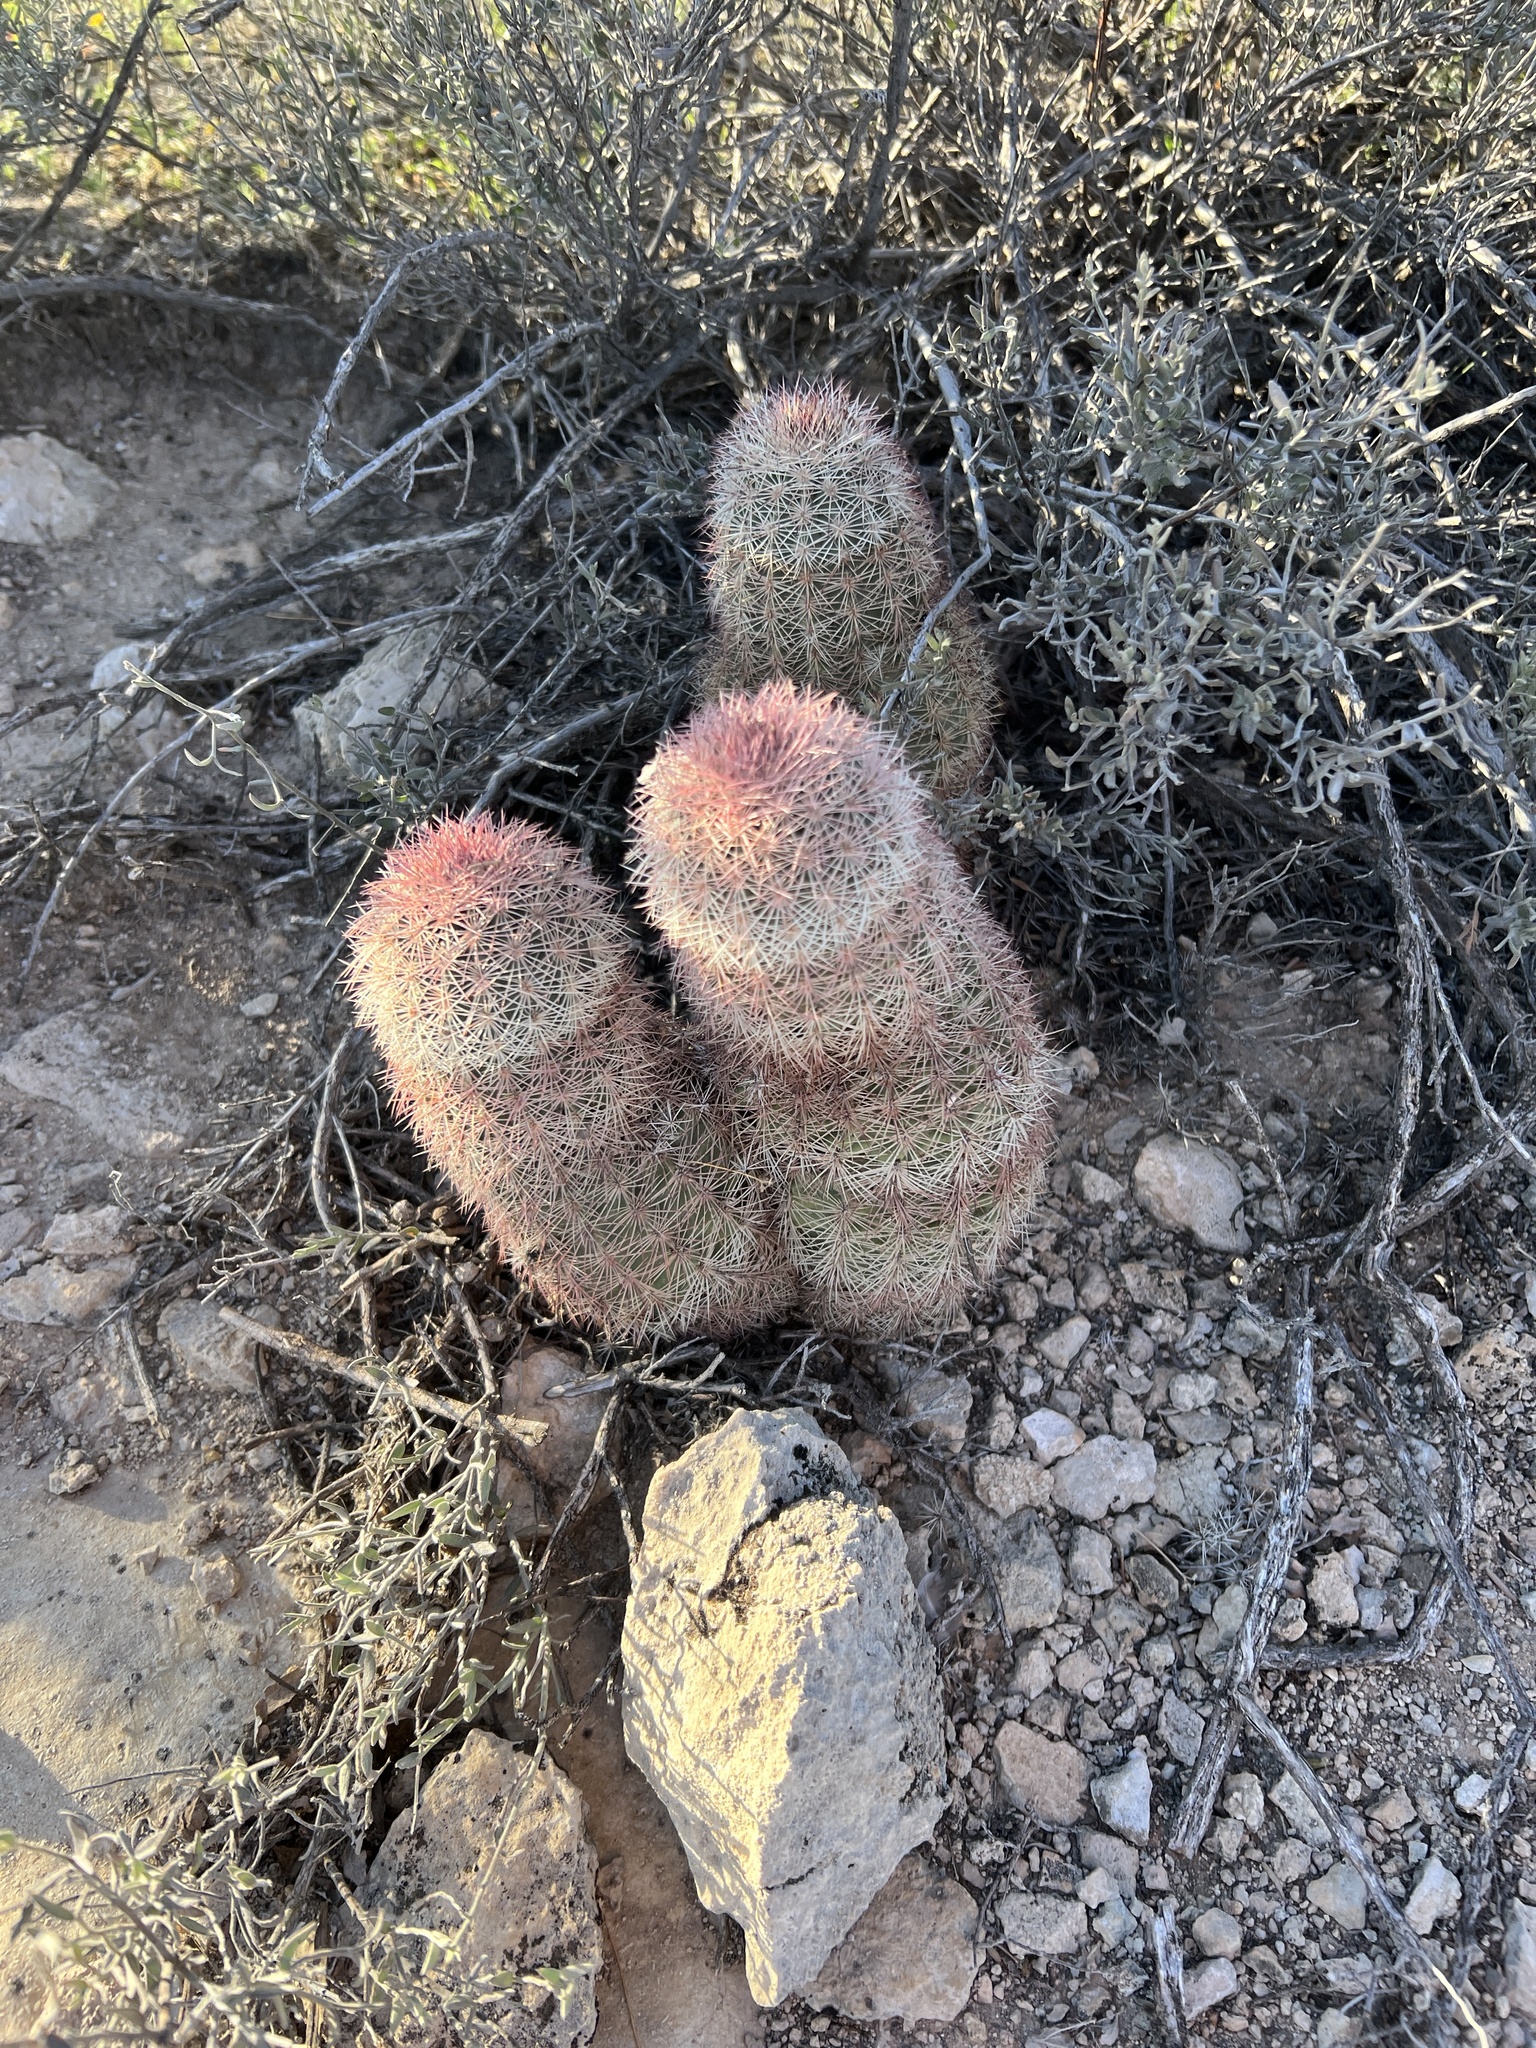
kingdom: Plantae
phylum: Tracheophyta
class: Magnoliopsida
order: Caryophyllales
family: Cactaceae
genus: Echinocereus
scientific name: Echinocereus dasyacanthus
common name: Spiny hedgehog cactus
